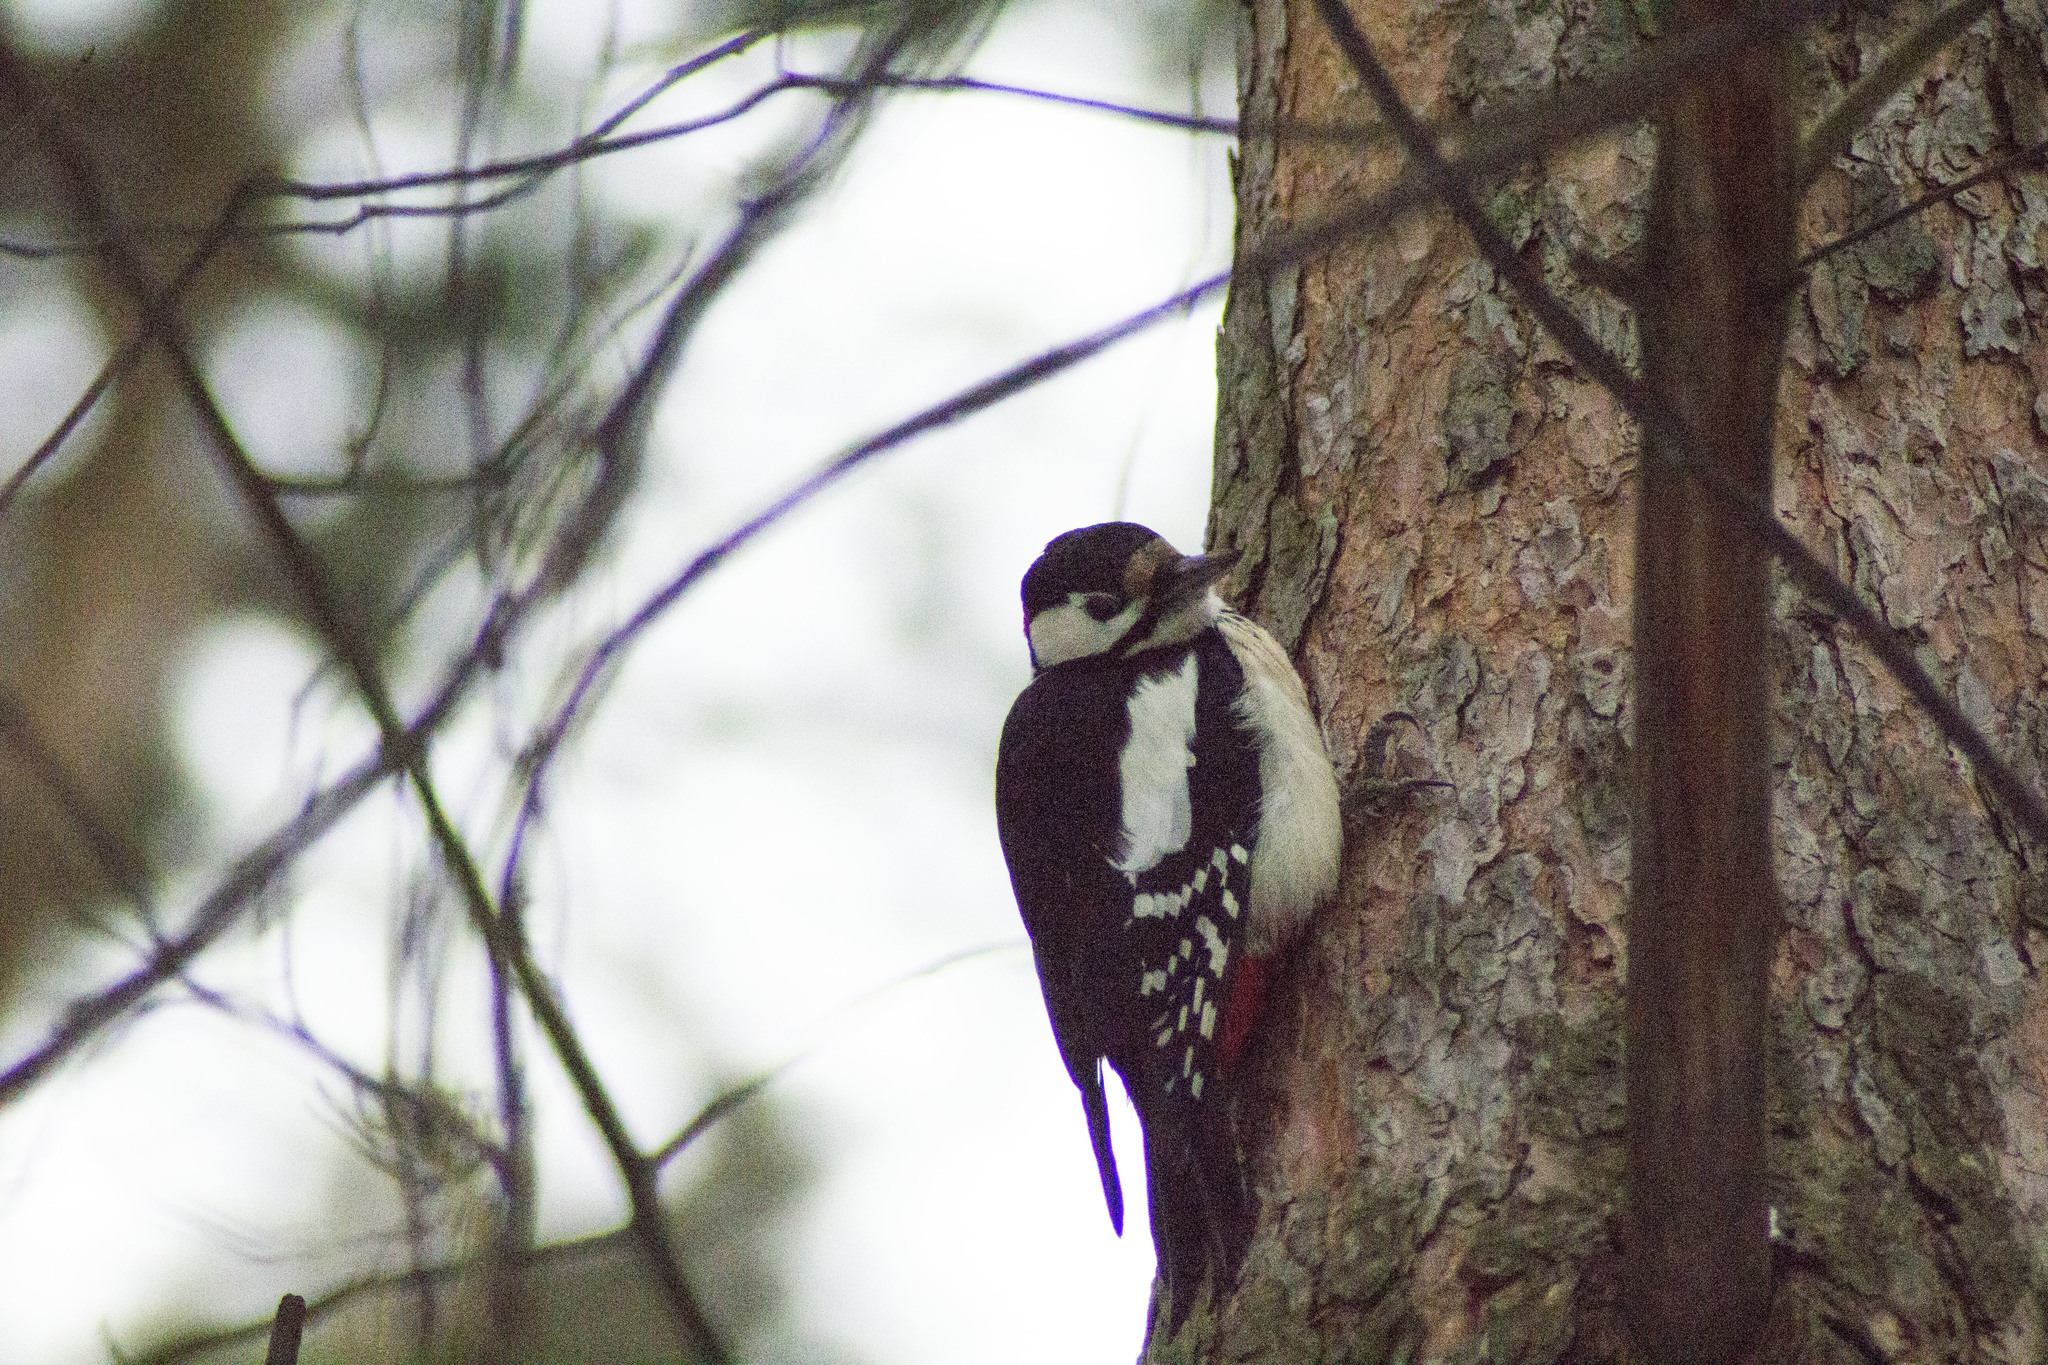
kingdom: Animalia
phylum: Chordata
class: Aves
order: Piciformes
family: Picidae
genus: Dendrocopos
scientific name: Dendrocopos major
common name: Great spotted woodpecker
